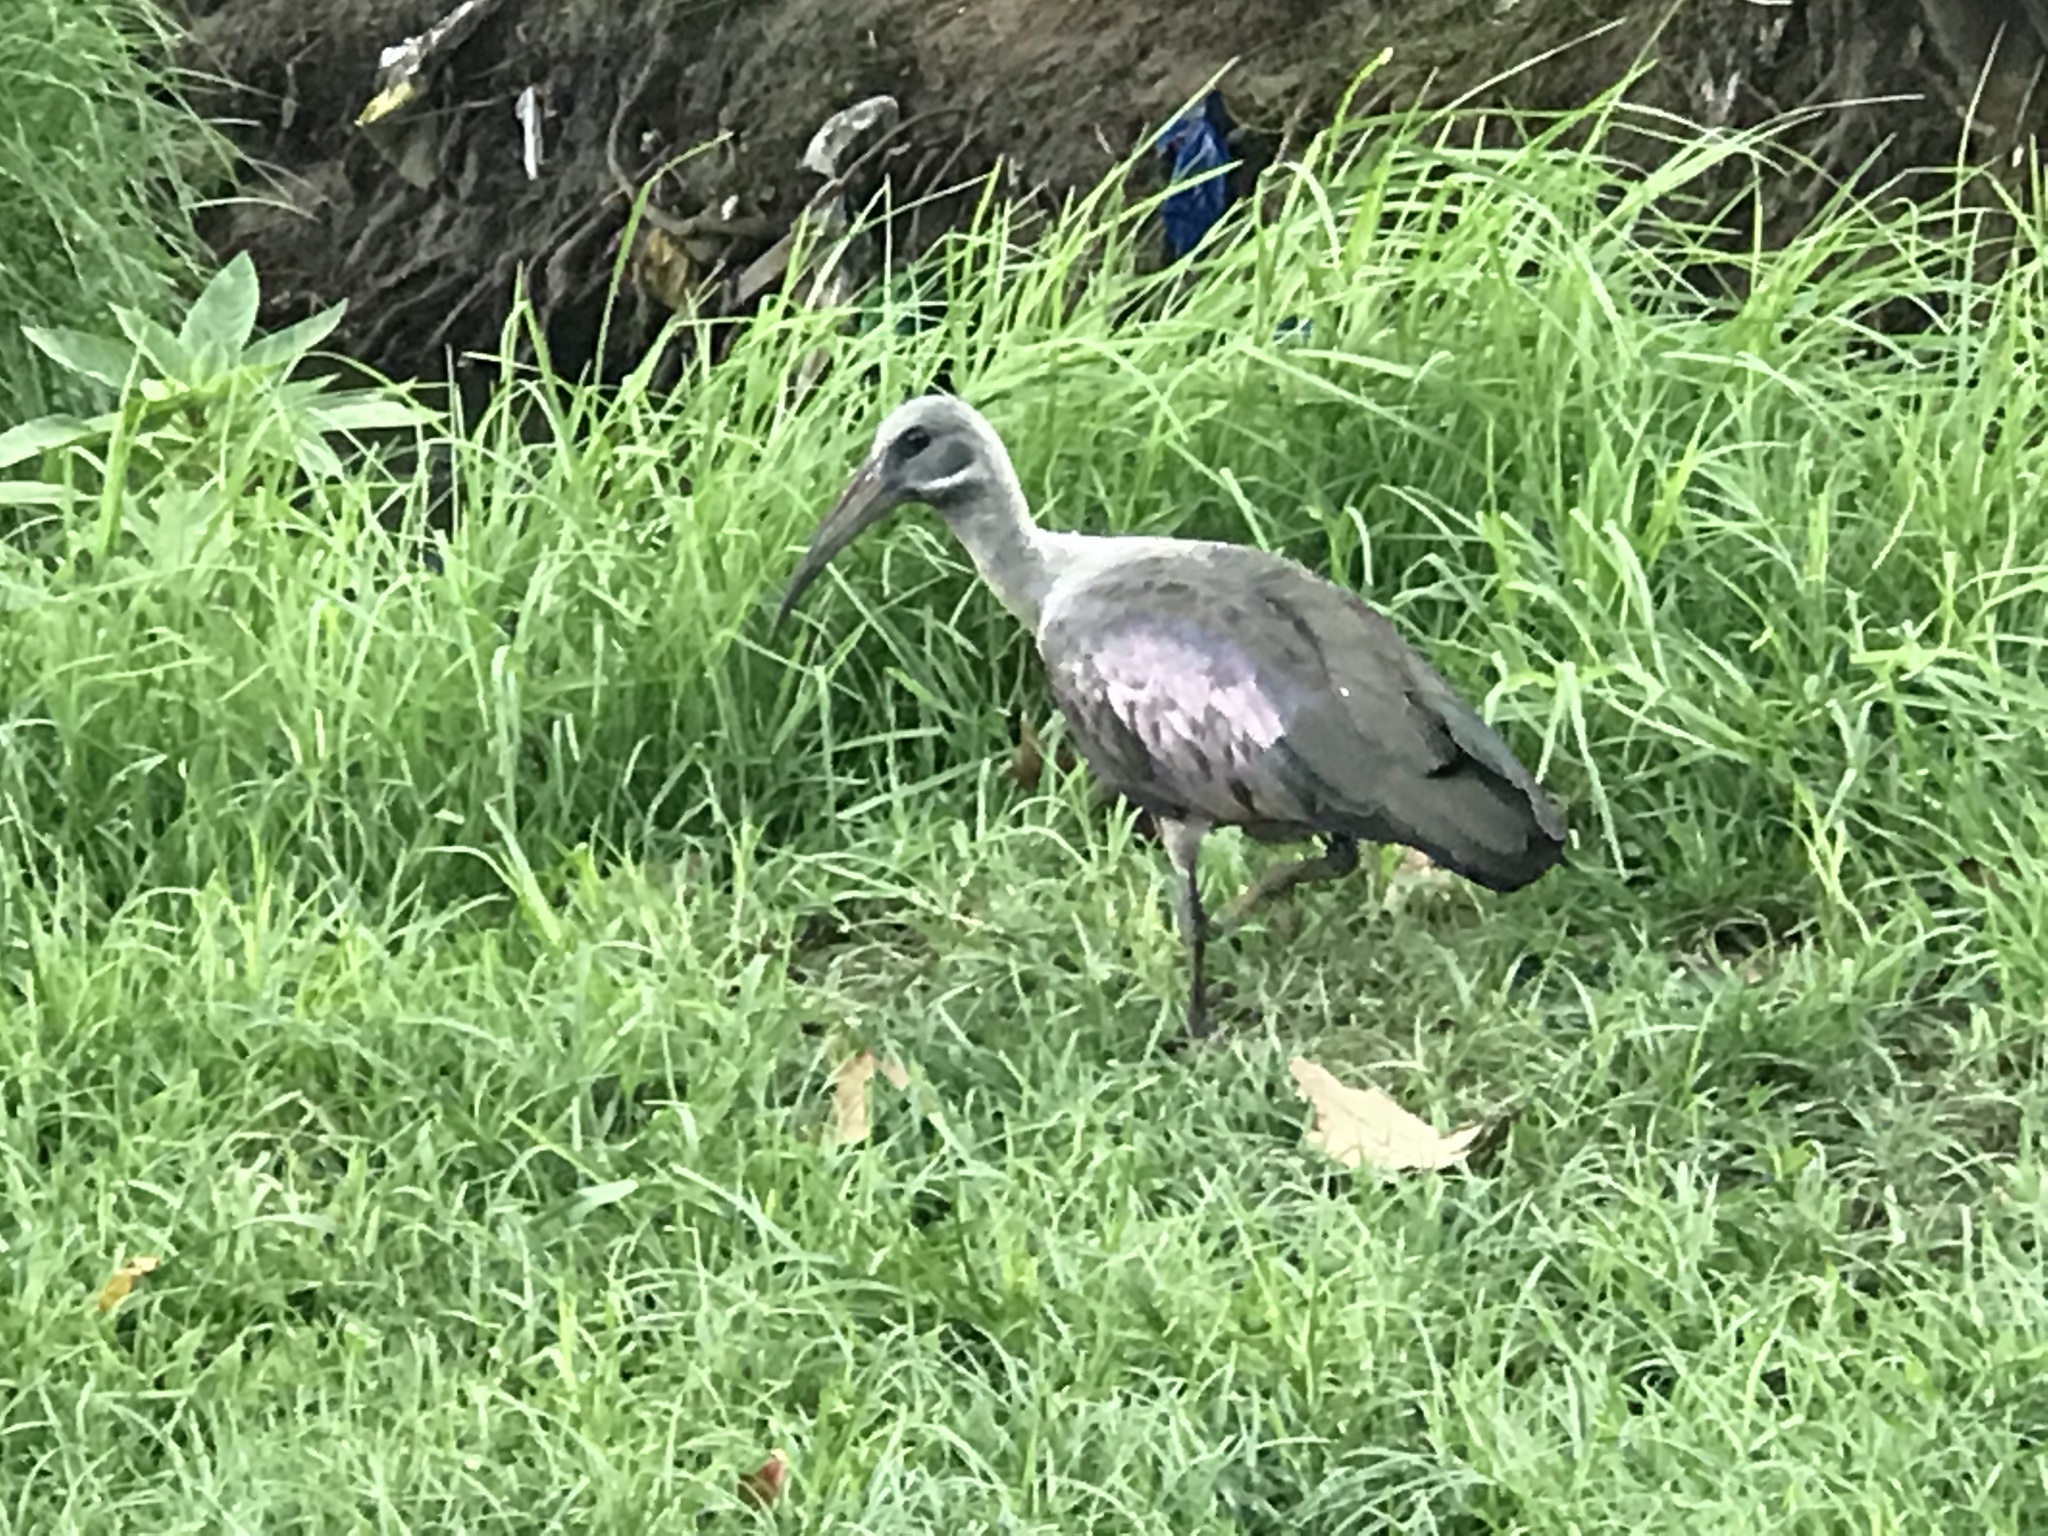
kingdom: Animalia
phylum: Chordata
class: Aves
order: Pelecaniformes
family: Threskiornithidae
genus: Bostrychia
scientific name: Bostrychia hagedash
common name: Hadada ibis
